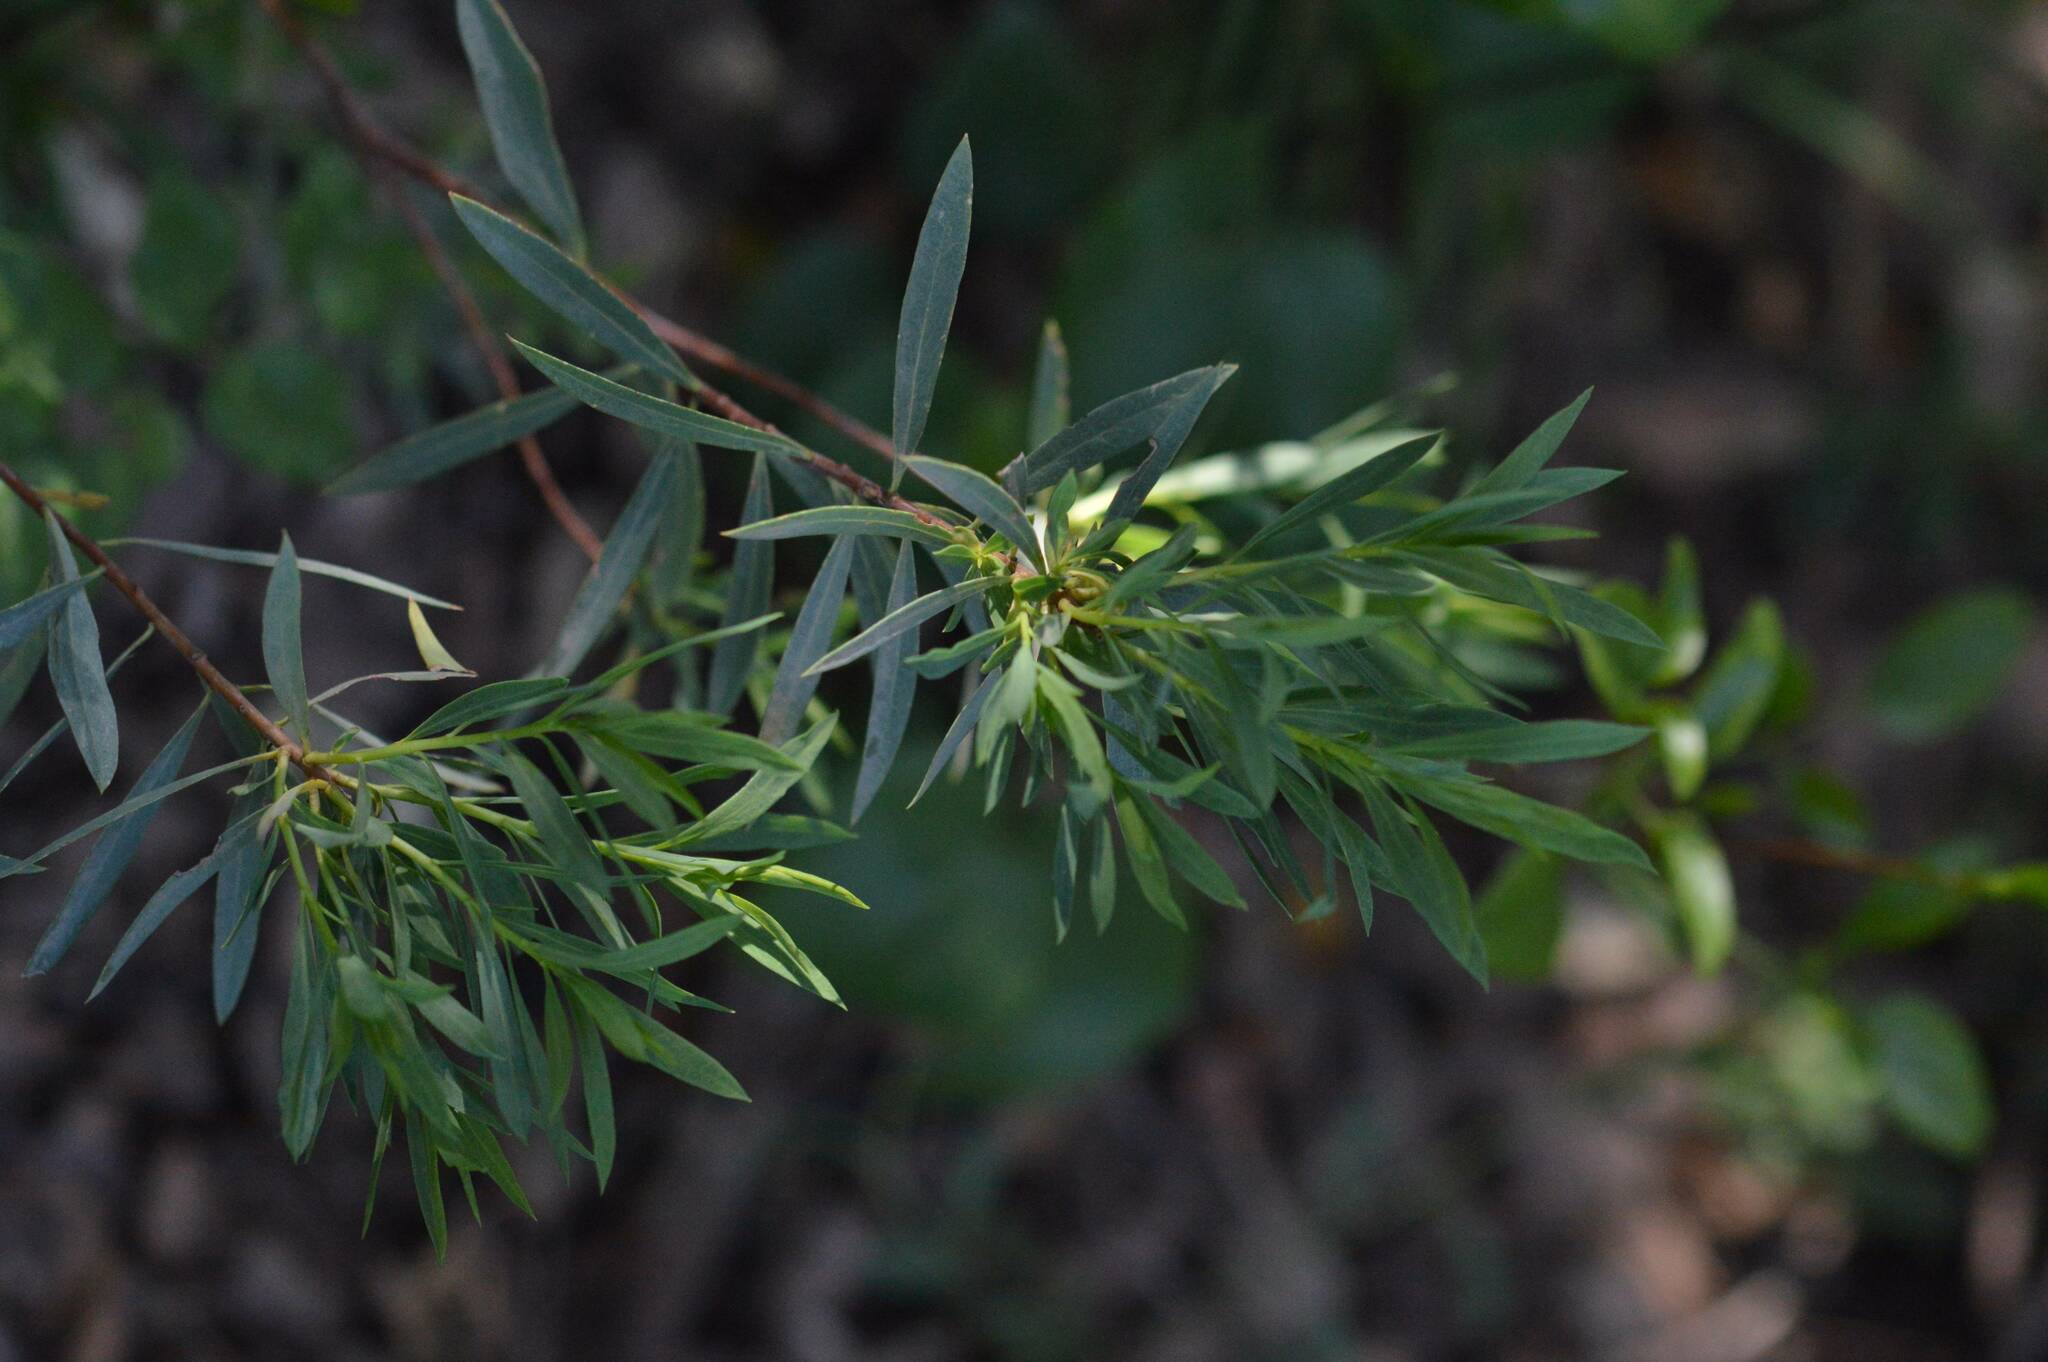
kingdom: Plantae
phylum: Tracheophyta
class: Magnoliopsida
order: Malvales
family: Thymelaeaceae
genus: Daphne
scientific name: Daphne gnidium
